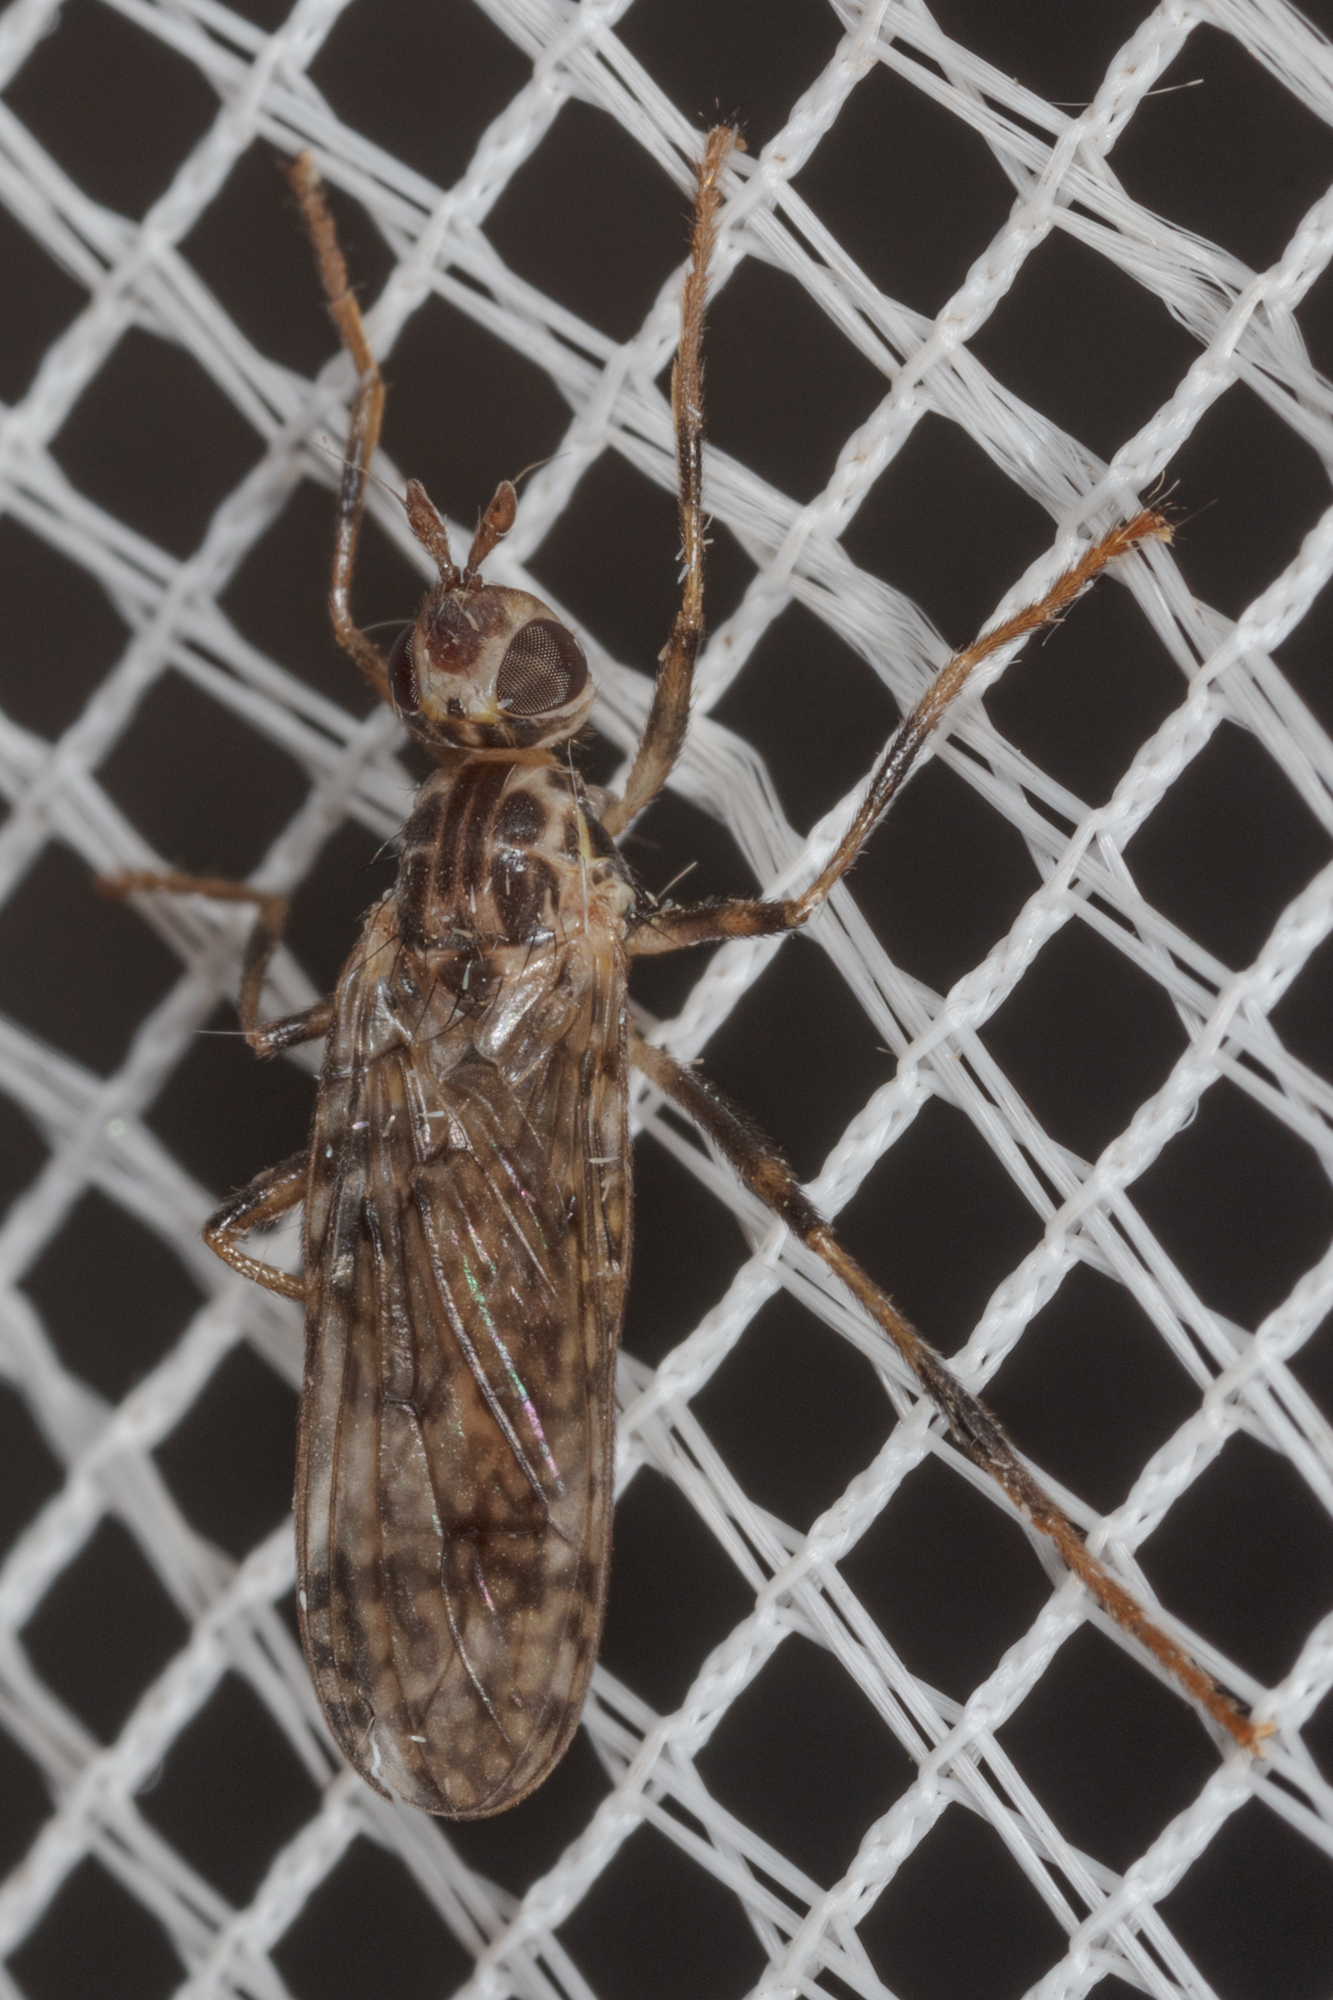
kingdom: Animalia
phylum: Arthropoda
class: Insecta
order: Diptera
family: Pyrgotidae
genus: Boreothrinax
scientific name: Boreothrinax
